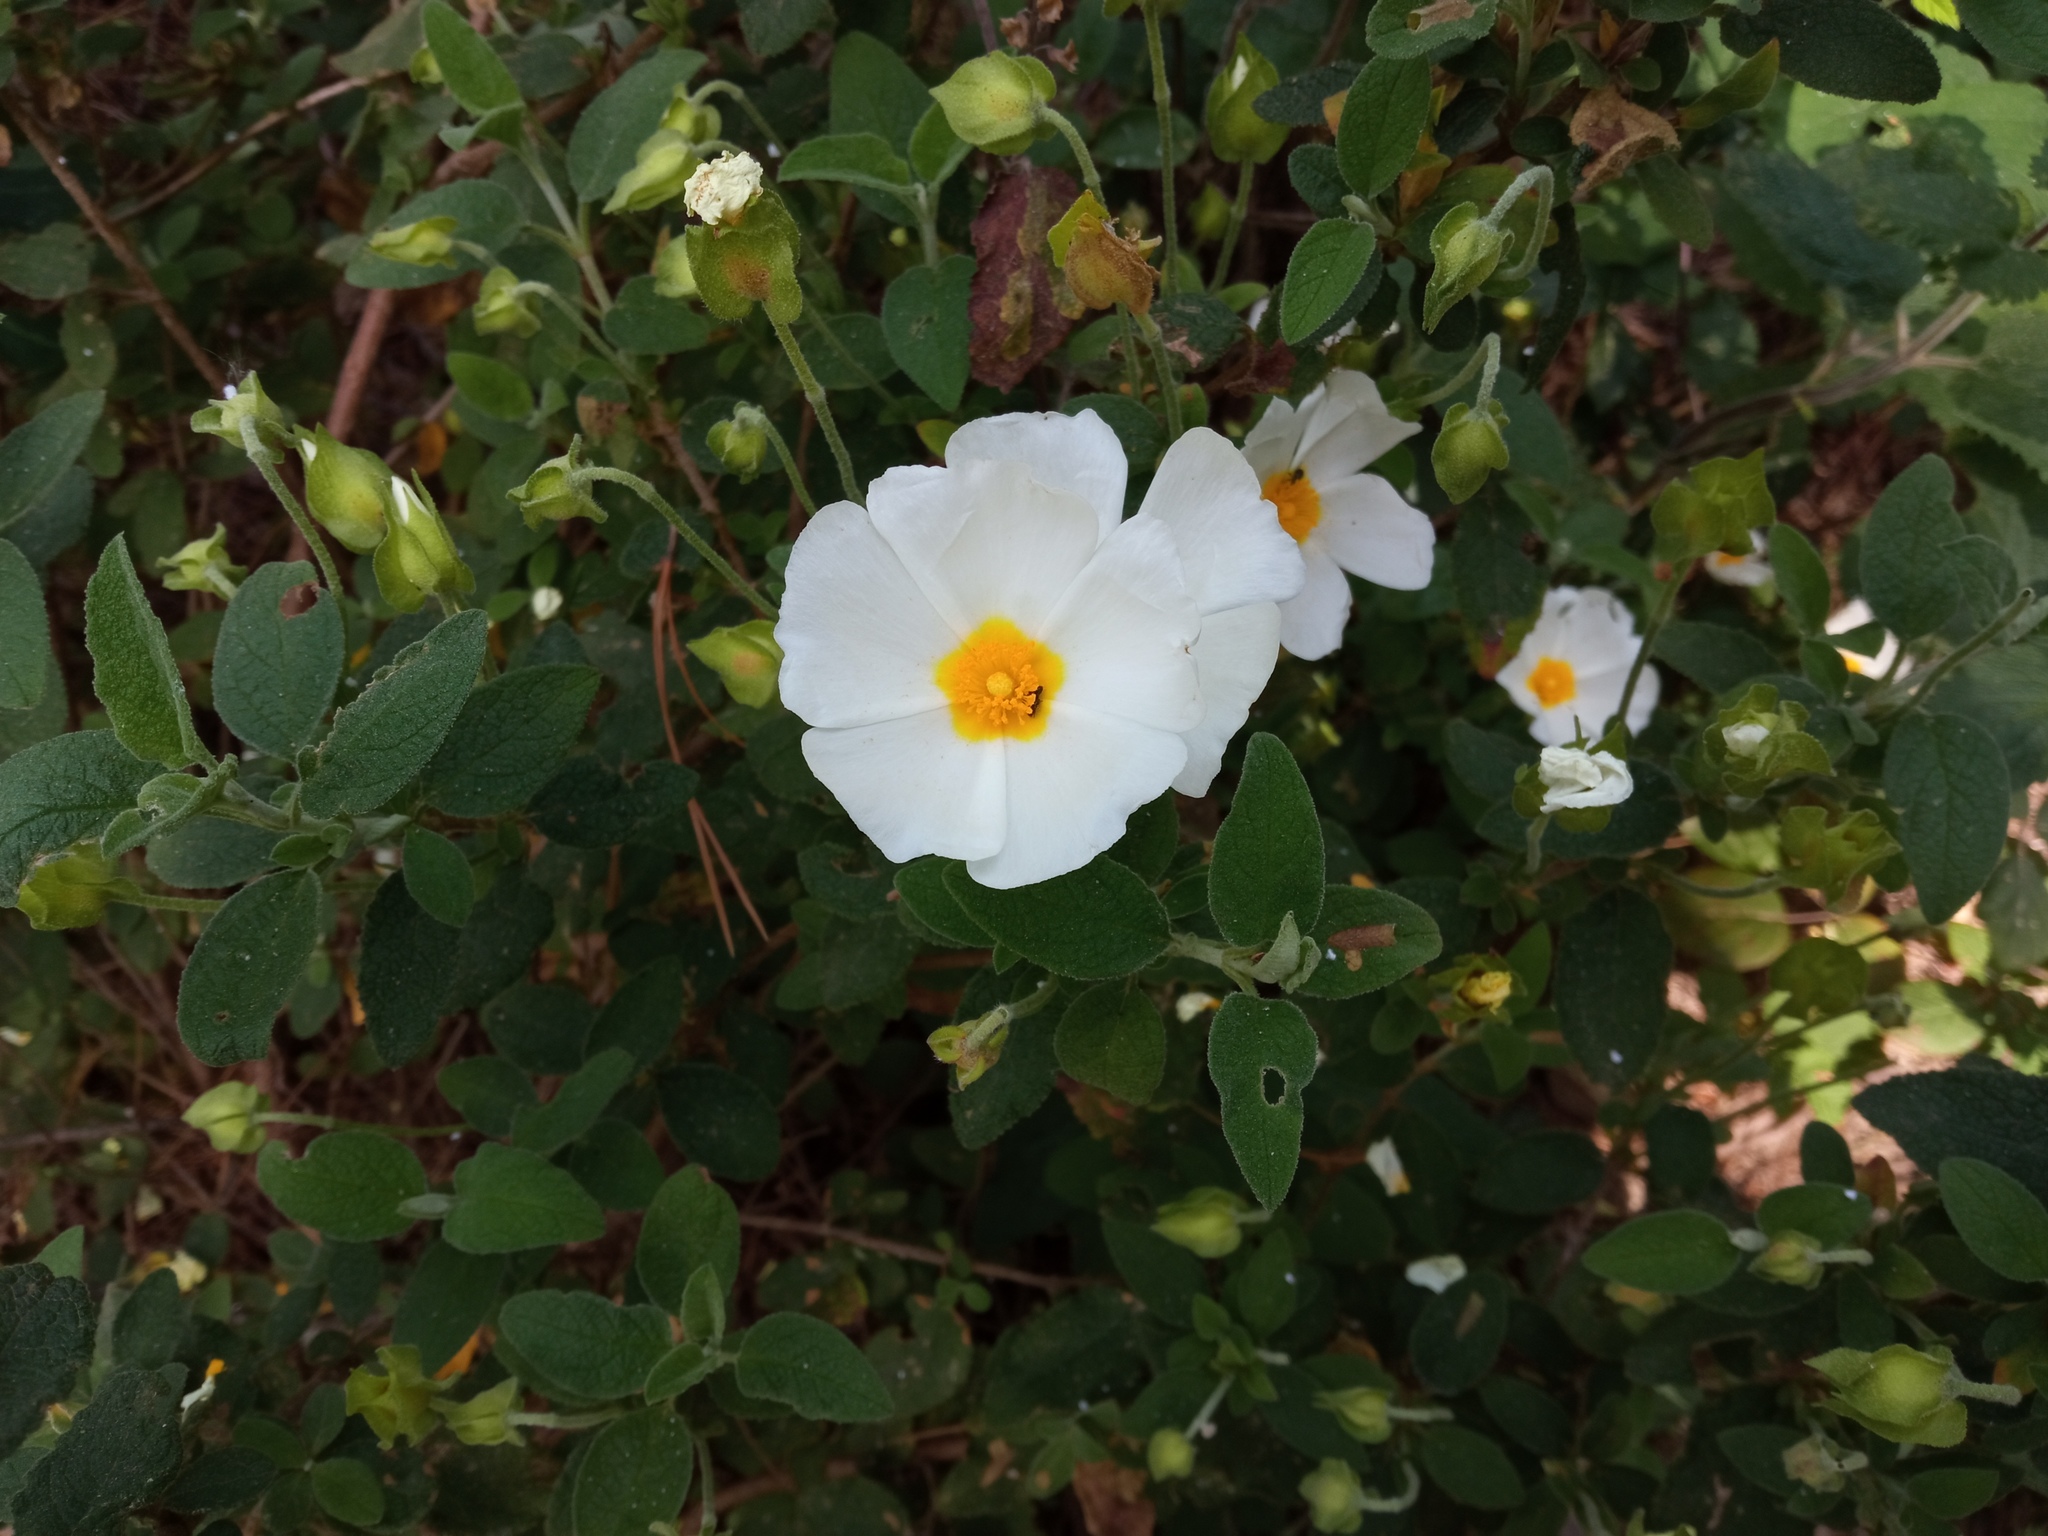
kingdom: Plantae
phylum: Tracheophyta
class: Magnoliopsida
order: Malvales
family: Cistaceae
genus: Cistus
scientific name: Cistus salviifolius
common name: Salvia cistus
